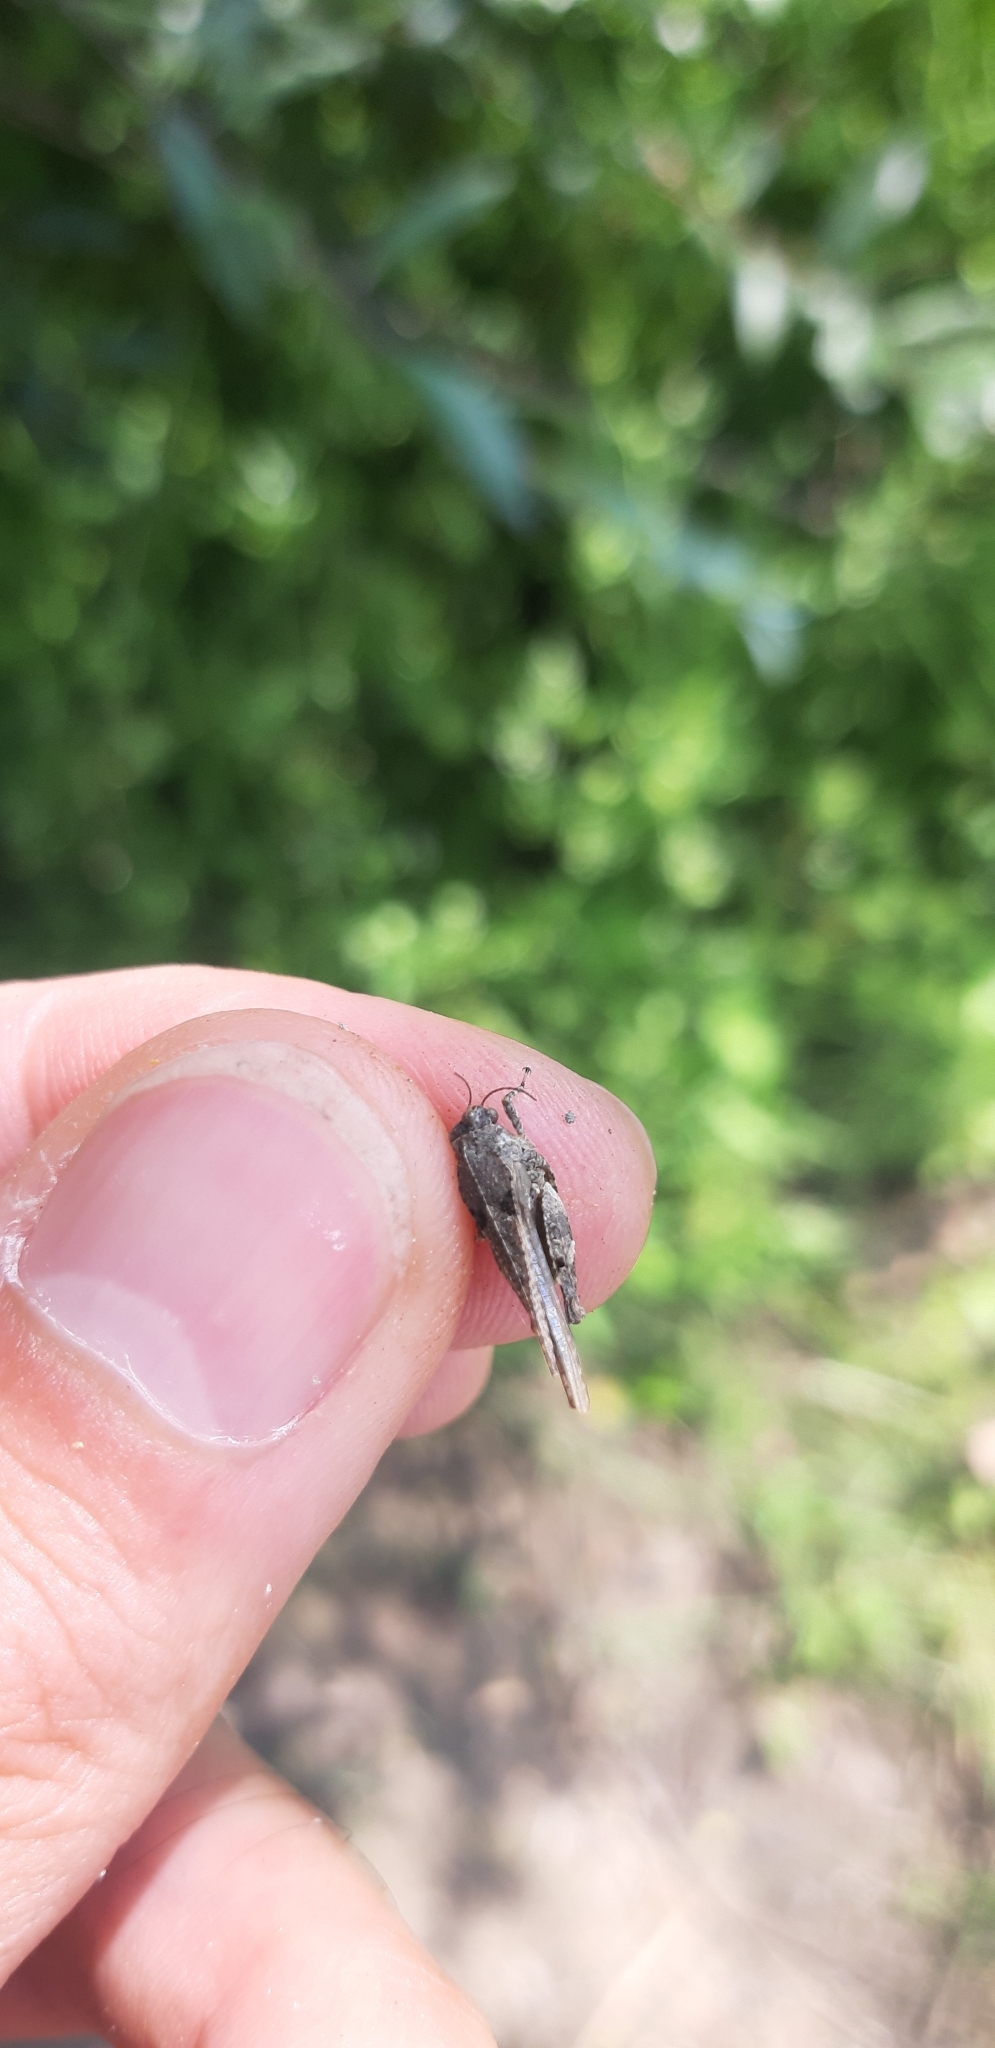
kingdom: Animalia
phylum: Arthropoda
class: Insecta
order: Orthoptera
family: Tetrigidae
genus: Paratettix
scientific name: Paratettix meridionalis
